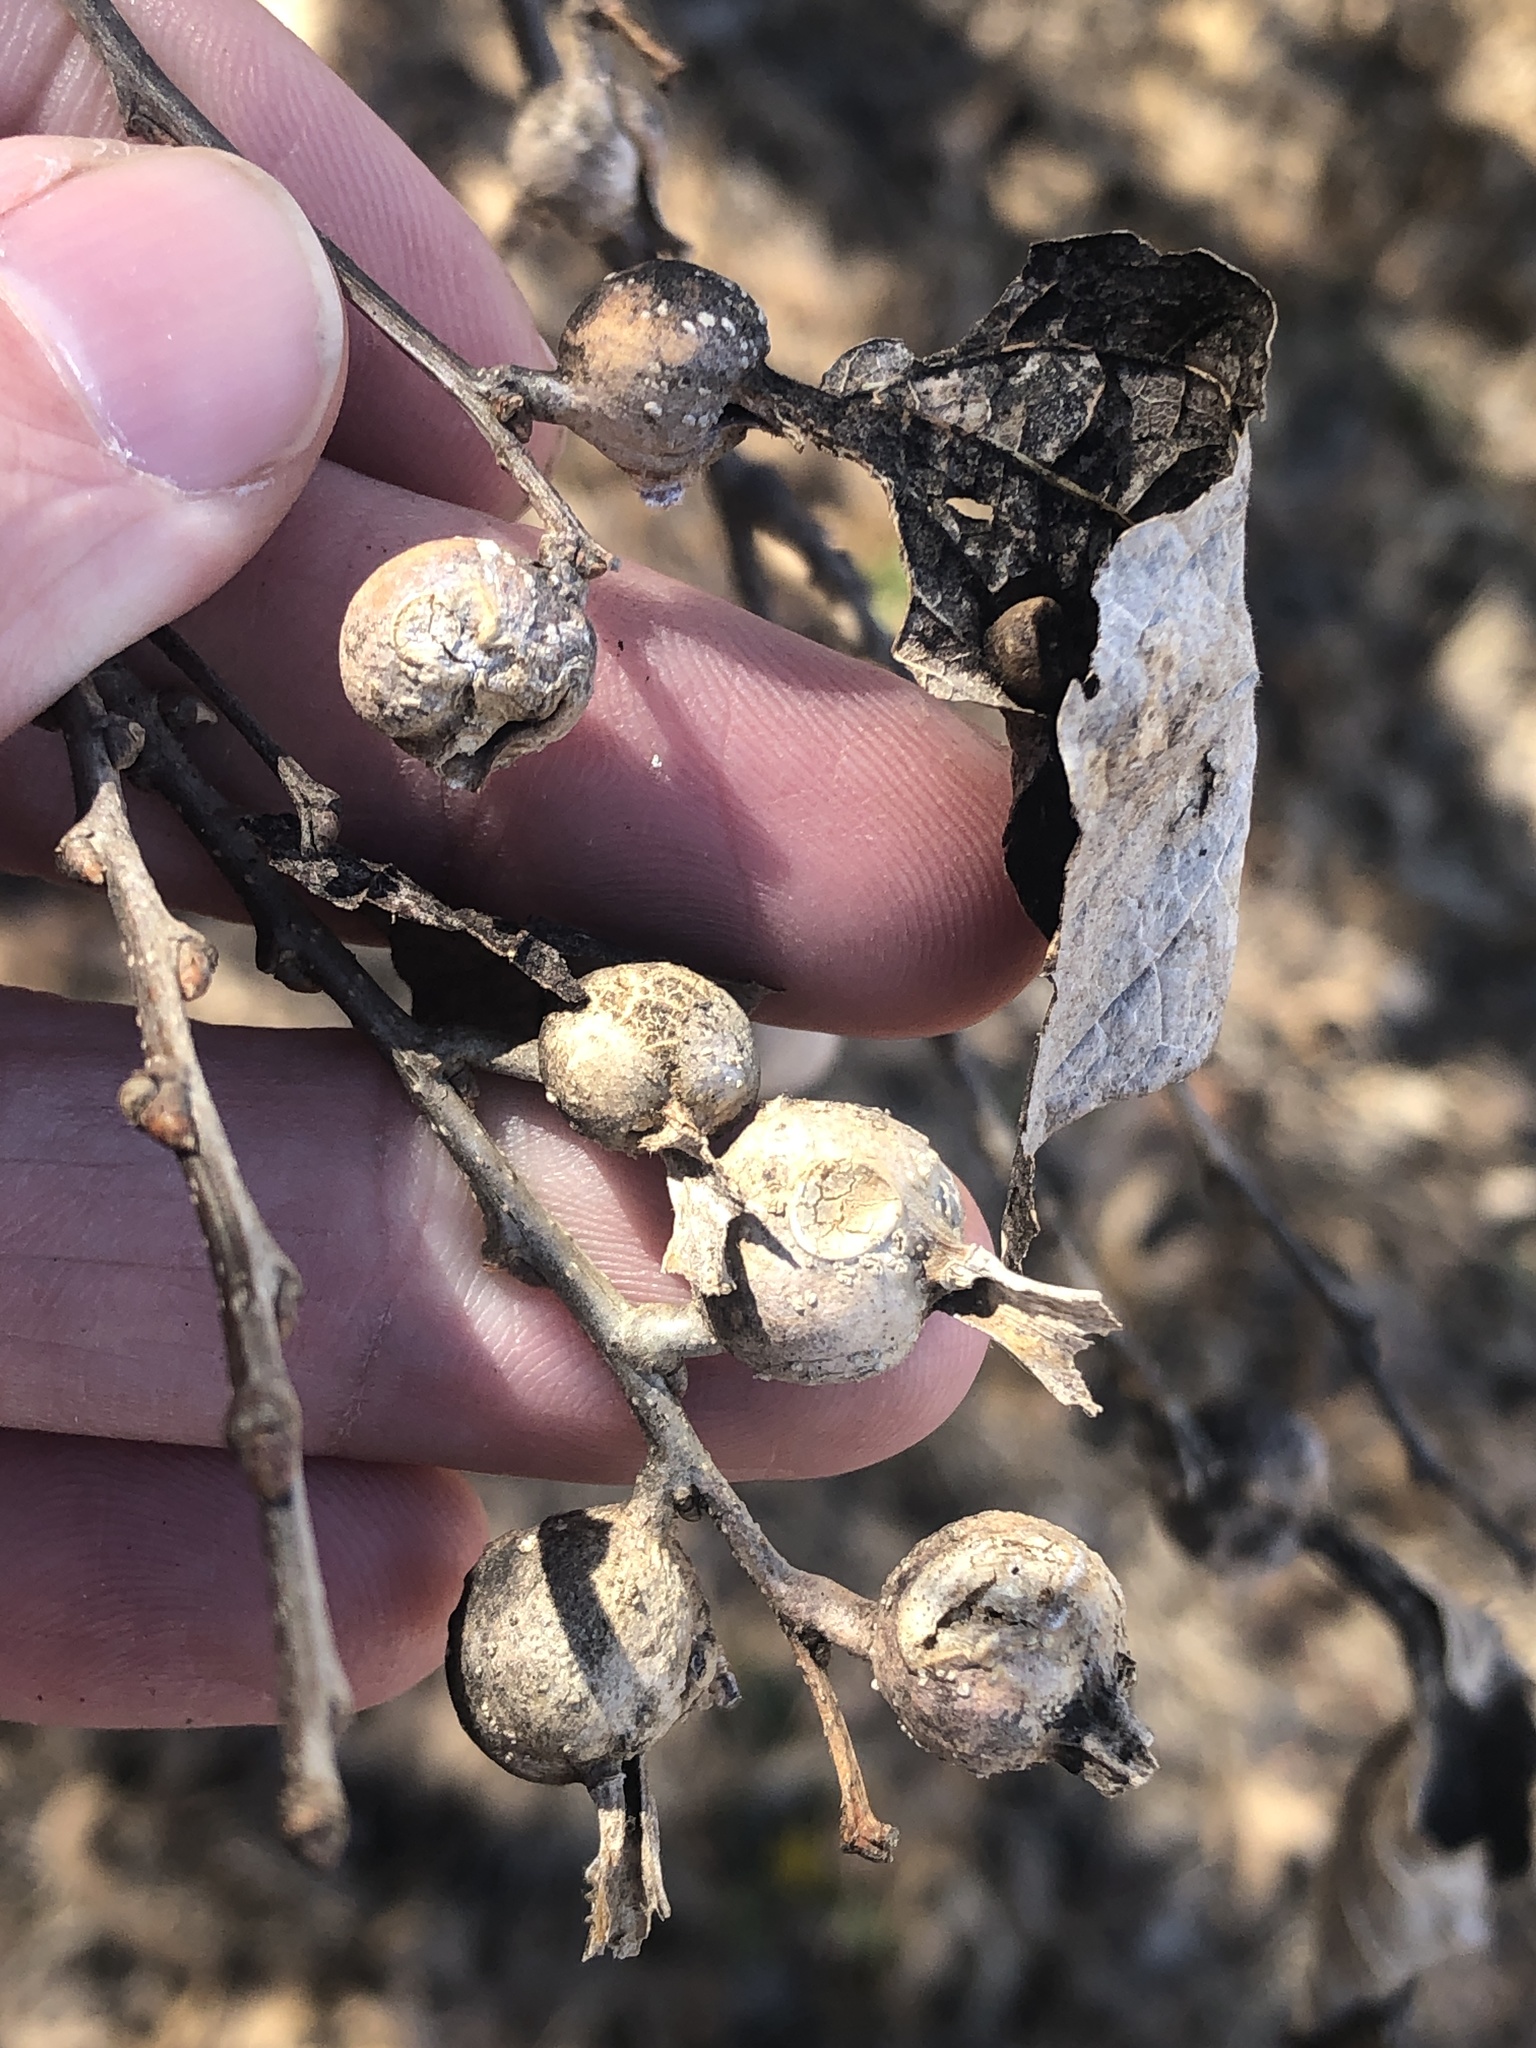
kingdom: Animalia
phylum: Arthropoda
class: Insecta
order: Hemiptera
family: Aphalaridae
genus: Pachypsylla
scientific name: Pachypsylla venusta
